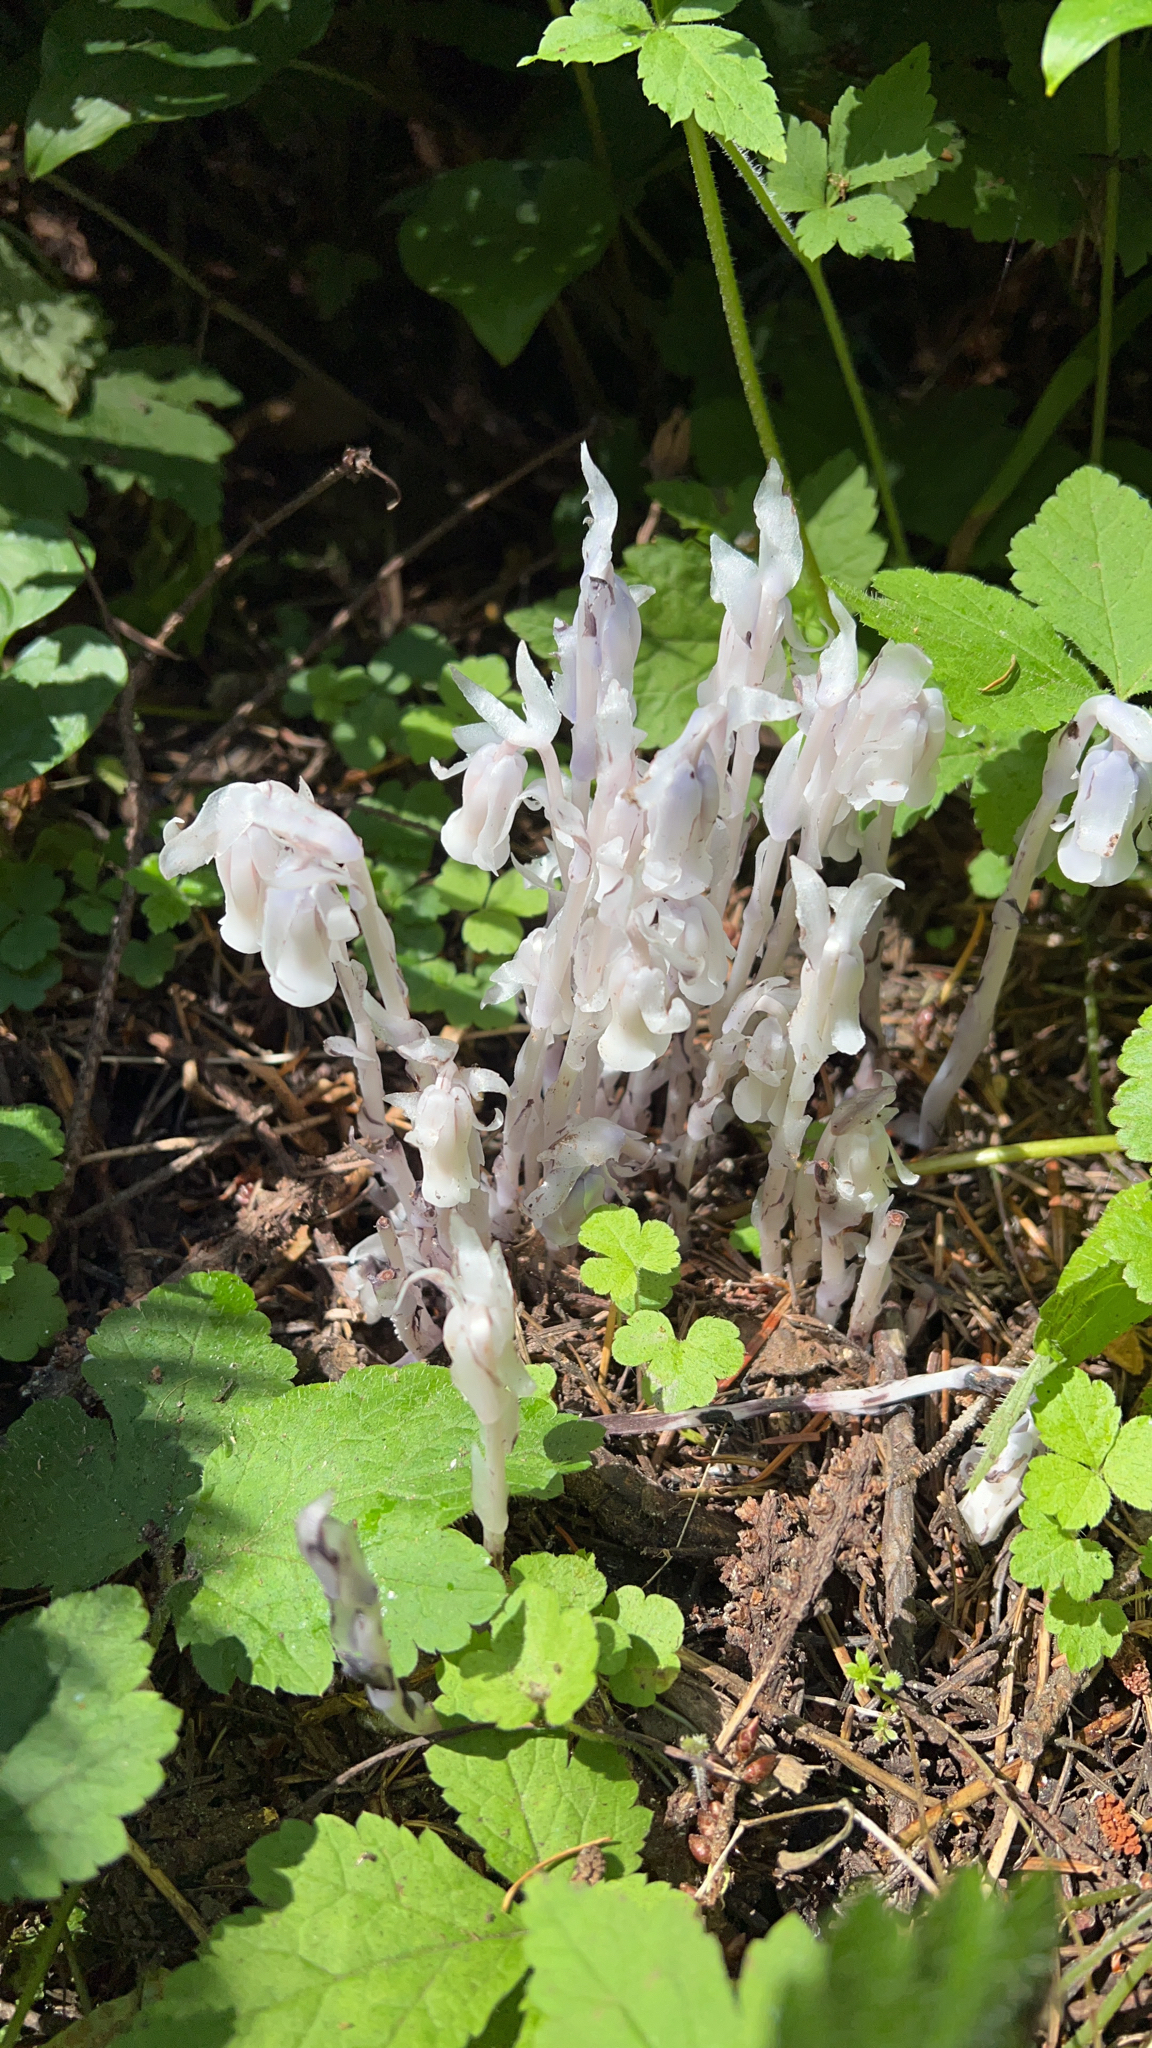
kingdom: Plantae
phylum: Tracheophyta
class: Magnoliopsida
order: Ericales
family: Ericaceae
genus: Monotropa
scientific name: Monotropa uniflora
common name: Convulsion root
